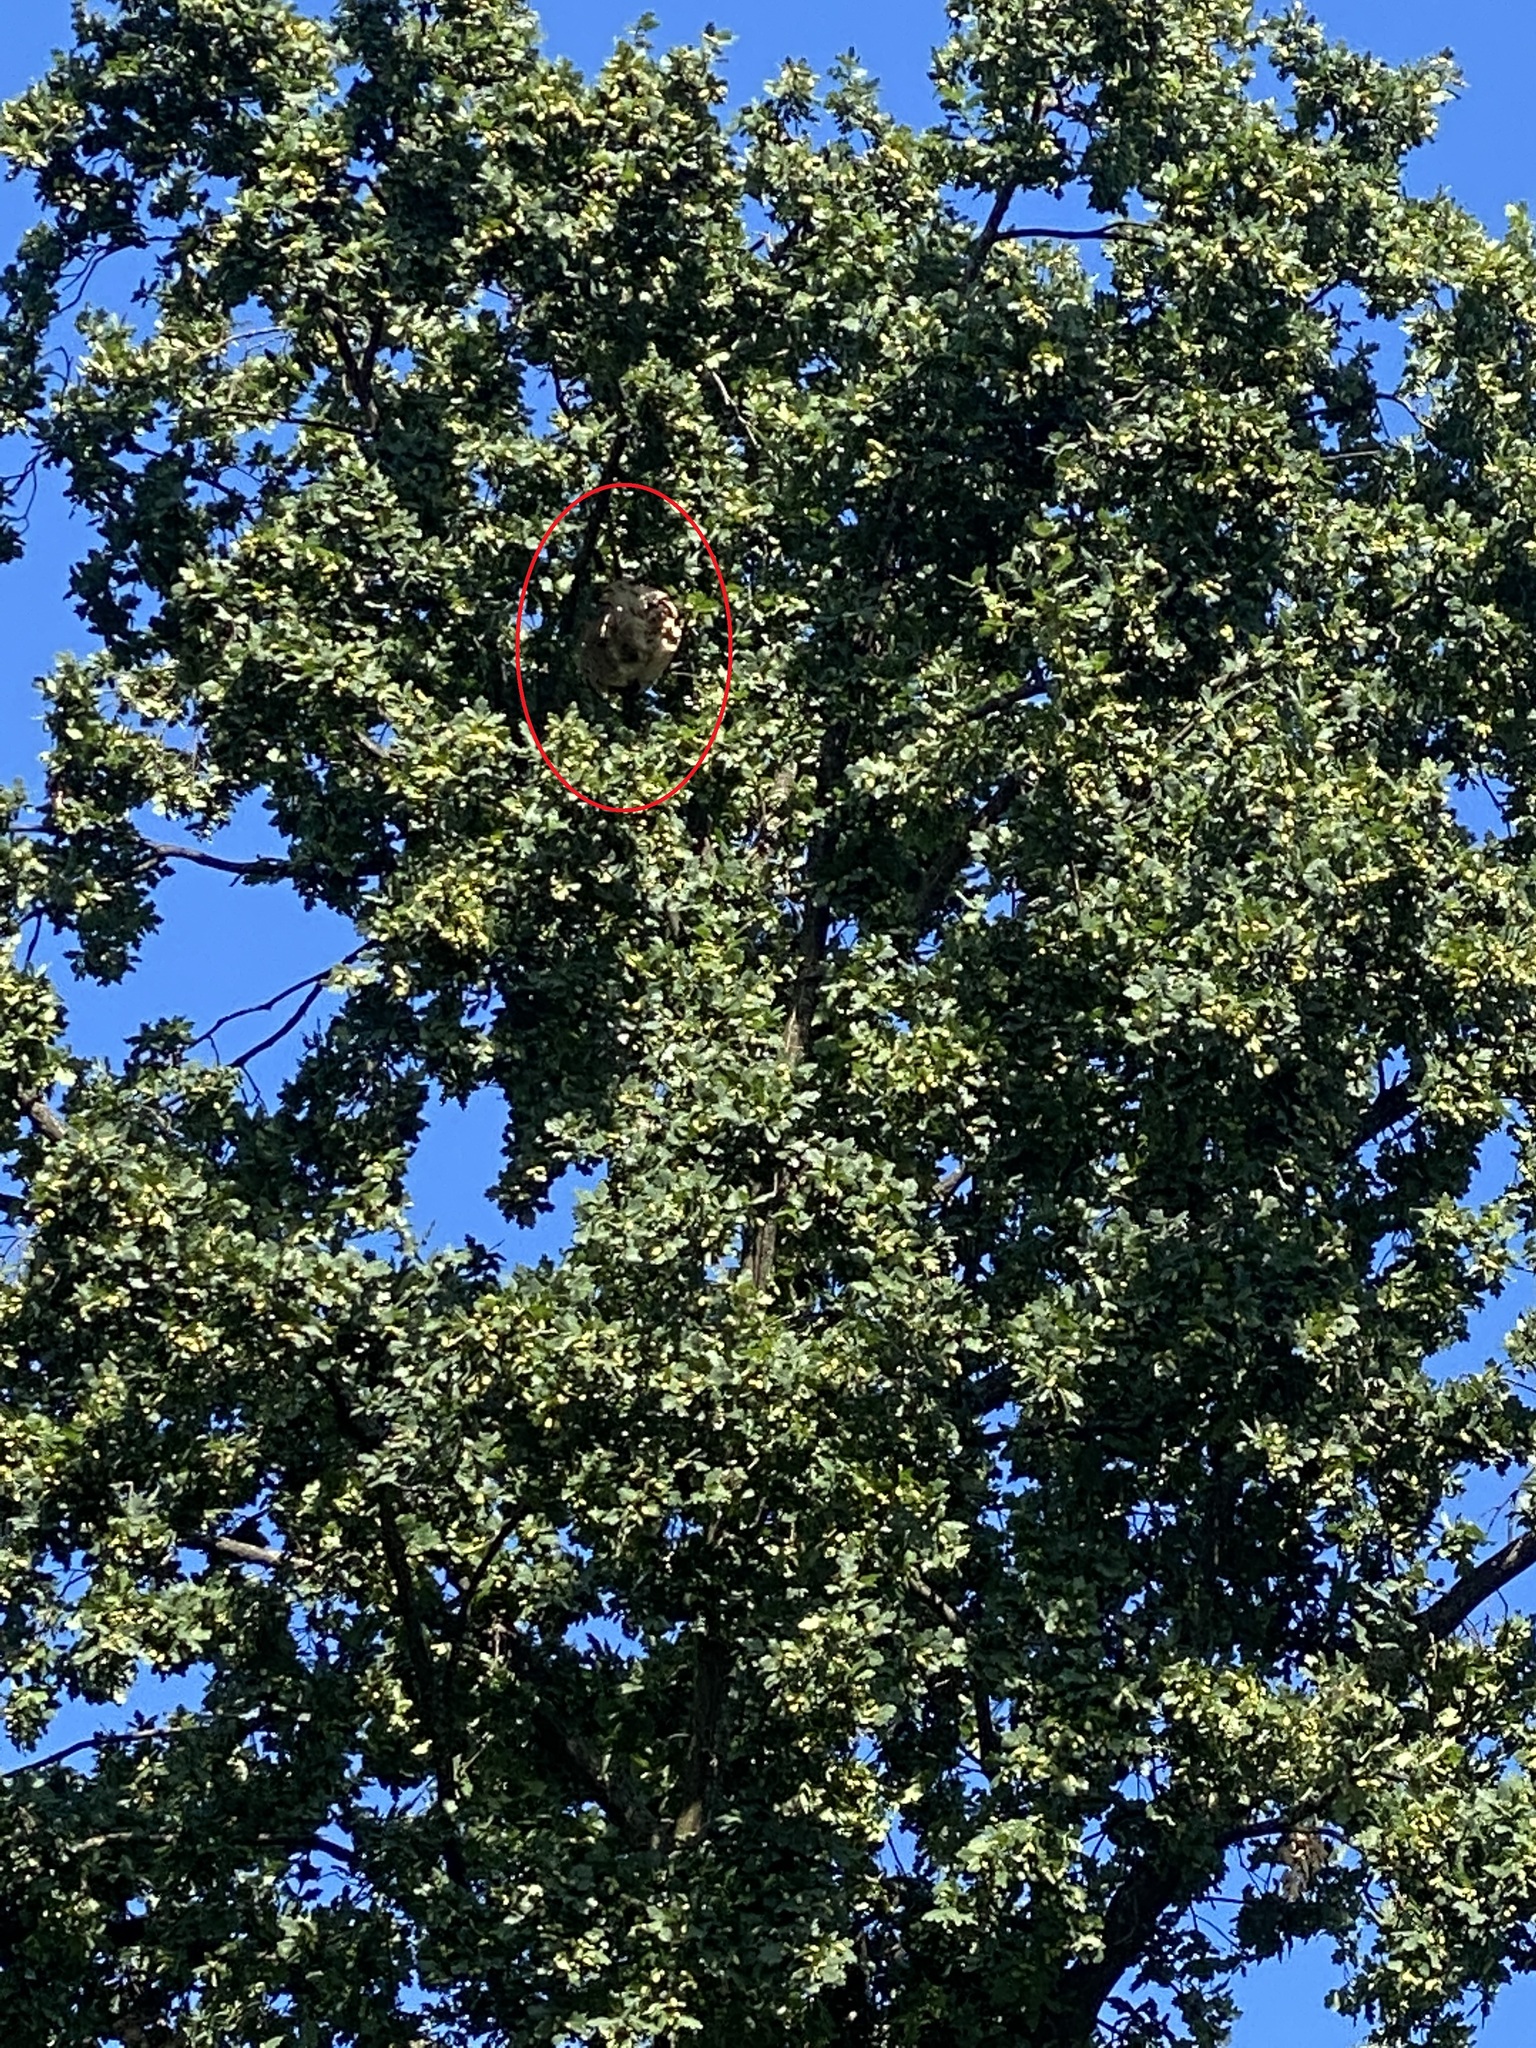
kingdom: Animalia
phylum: Arthropoda
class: Insecta
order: Hymenoptera
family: Vespidae
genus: Vespa
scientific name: Vespa velutina
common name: Asian hornet
